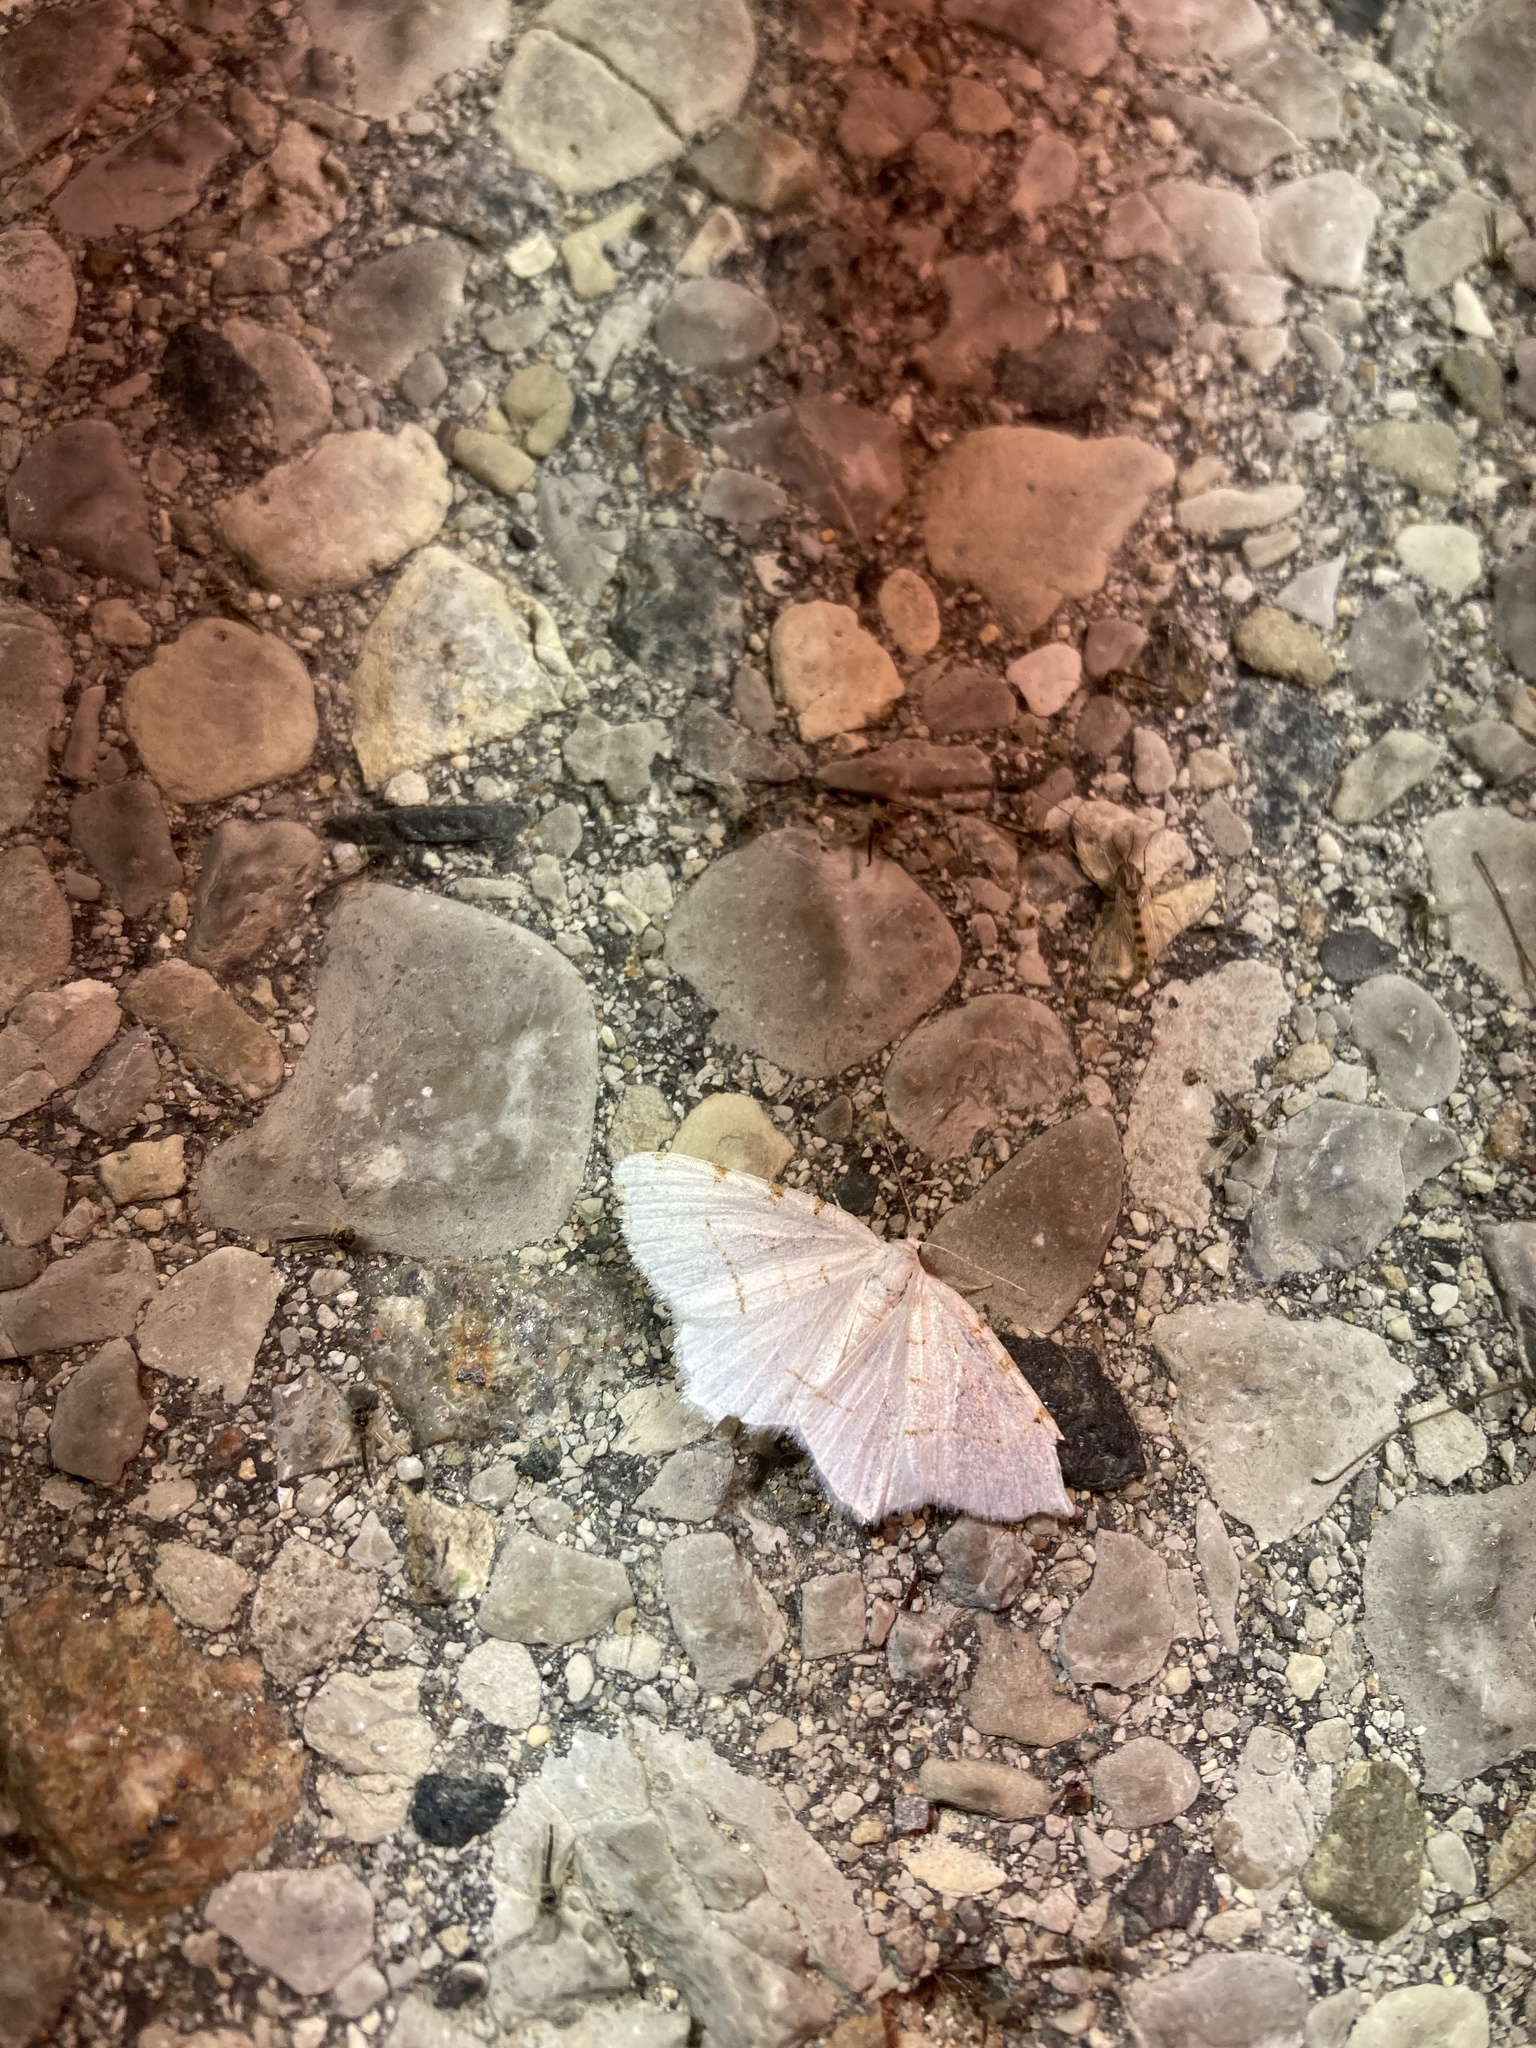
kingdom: Animalia
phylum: Arthropoda
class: Insecta
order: Lepidoptera
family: Geometridae
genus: Macaria
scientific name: Macaria pustularia
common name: Lesser maple spanworm moth
